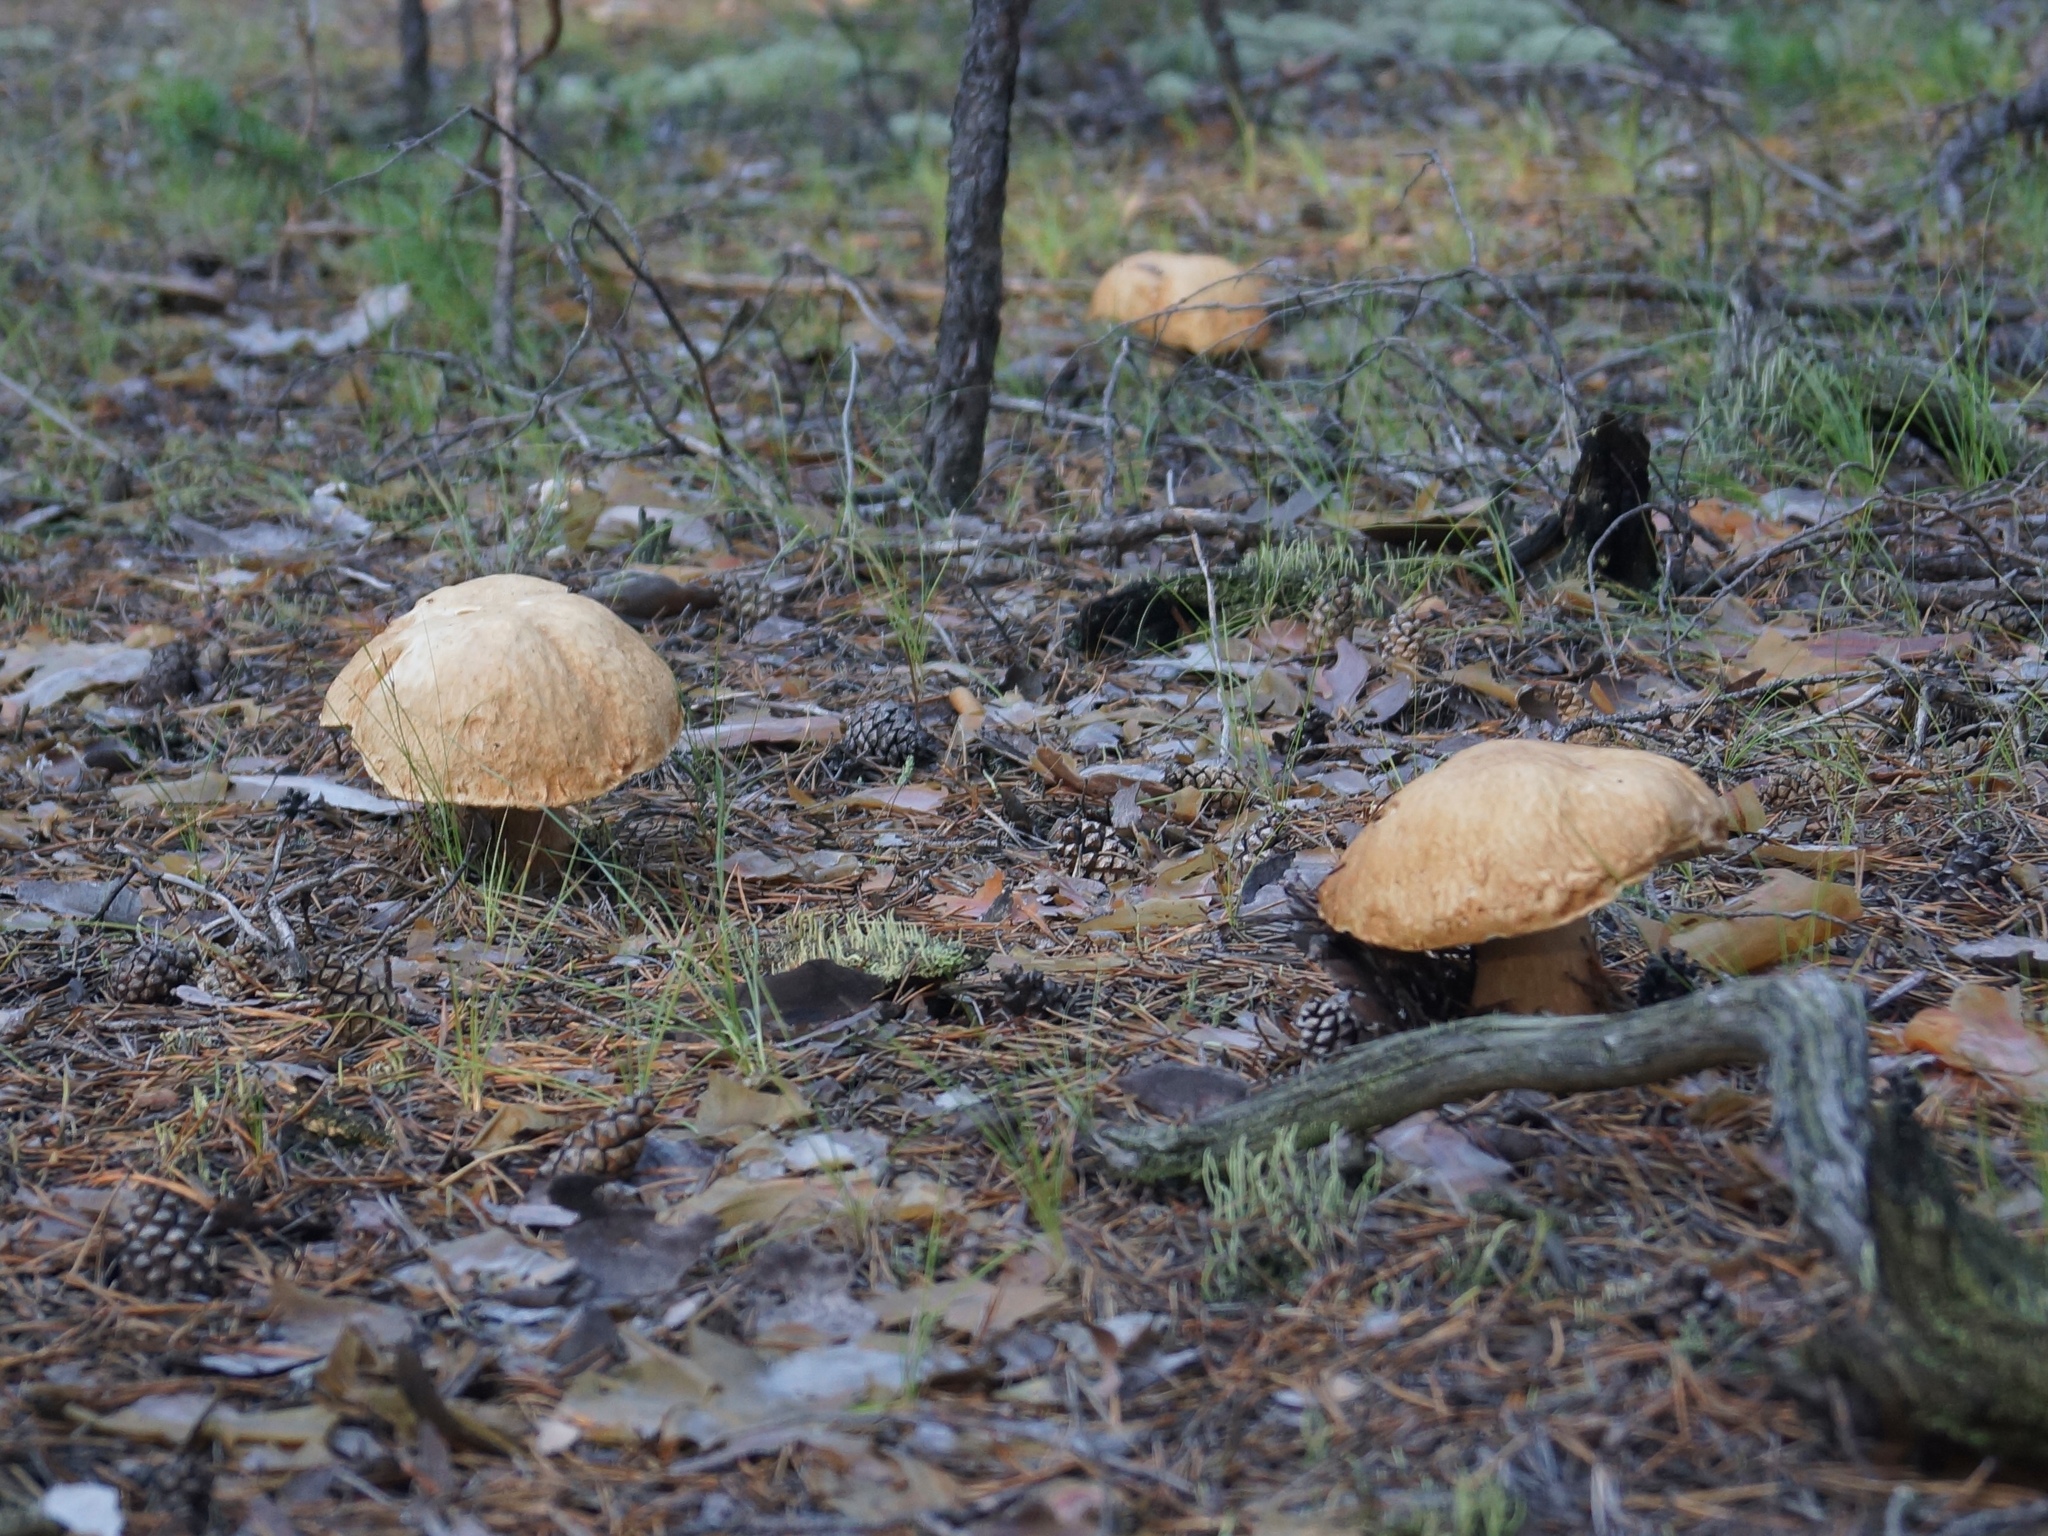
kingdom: Fungi
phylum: Basidiomycota
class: Agaricomycetes
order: Boletales
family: Boletaceae
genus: Boletus
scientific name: Boletus edulis
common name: Cep
